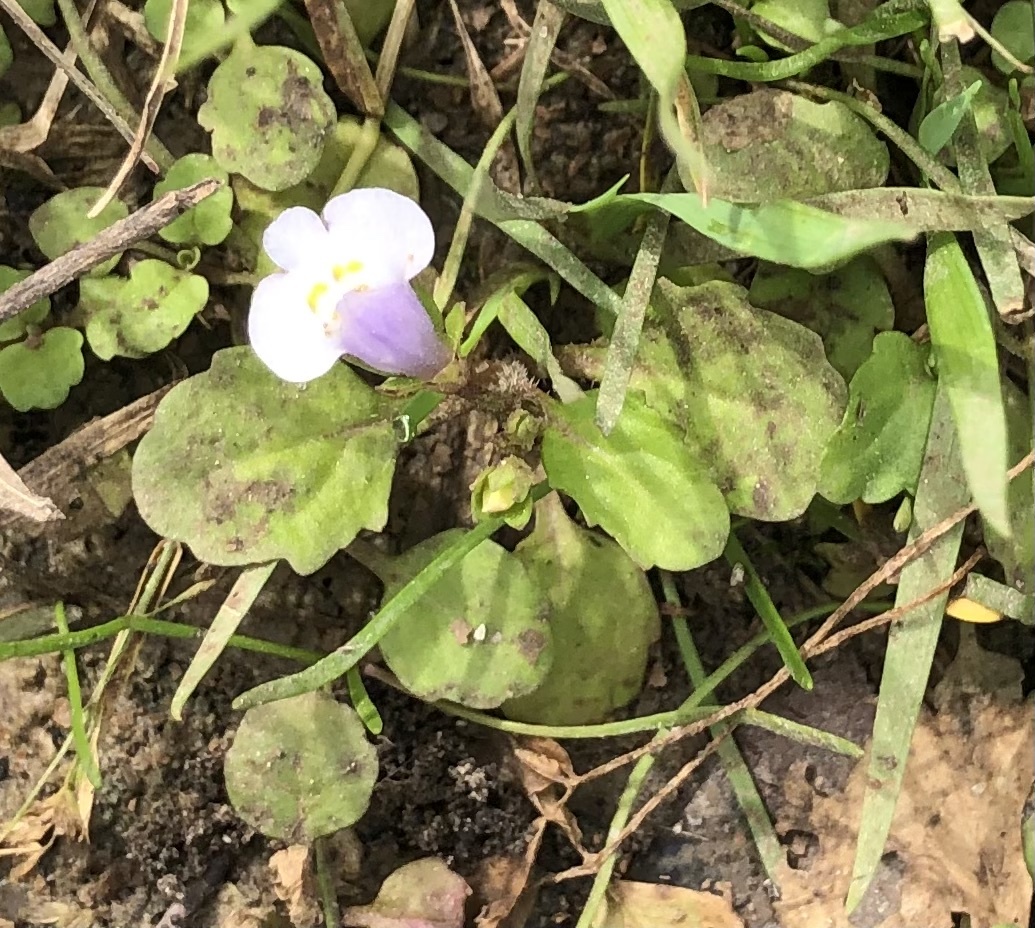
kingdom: Plantae
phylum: Tracheophyta
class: Magnoliopsida
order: Lamiales
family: Mazaceae
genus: Mazus
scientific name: Mazus pumilus
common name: Japanese mazus
